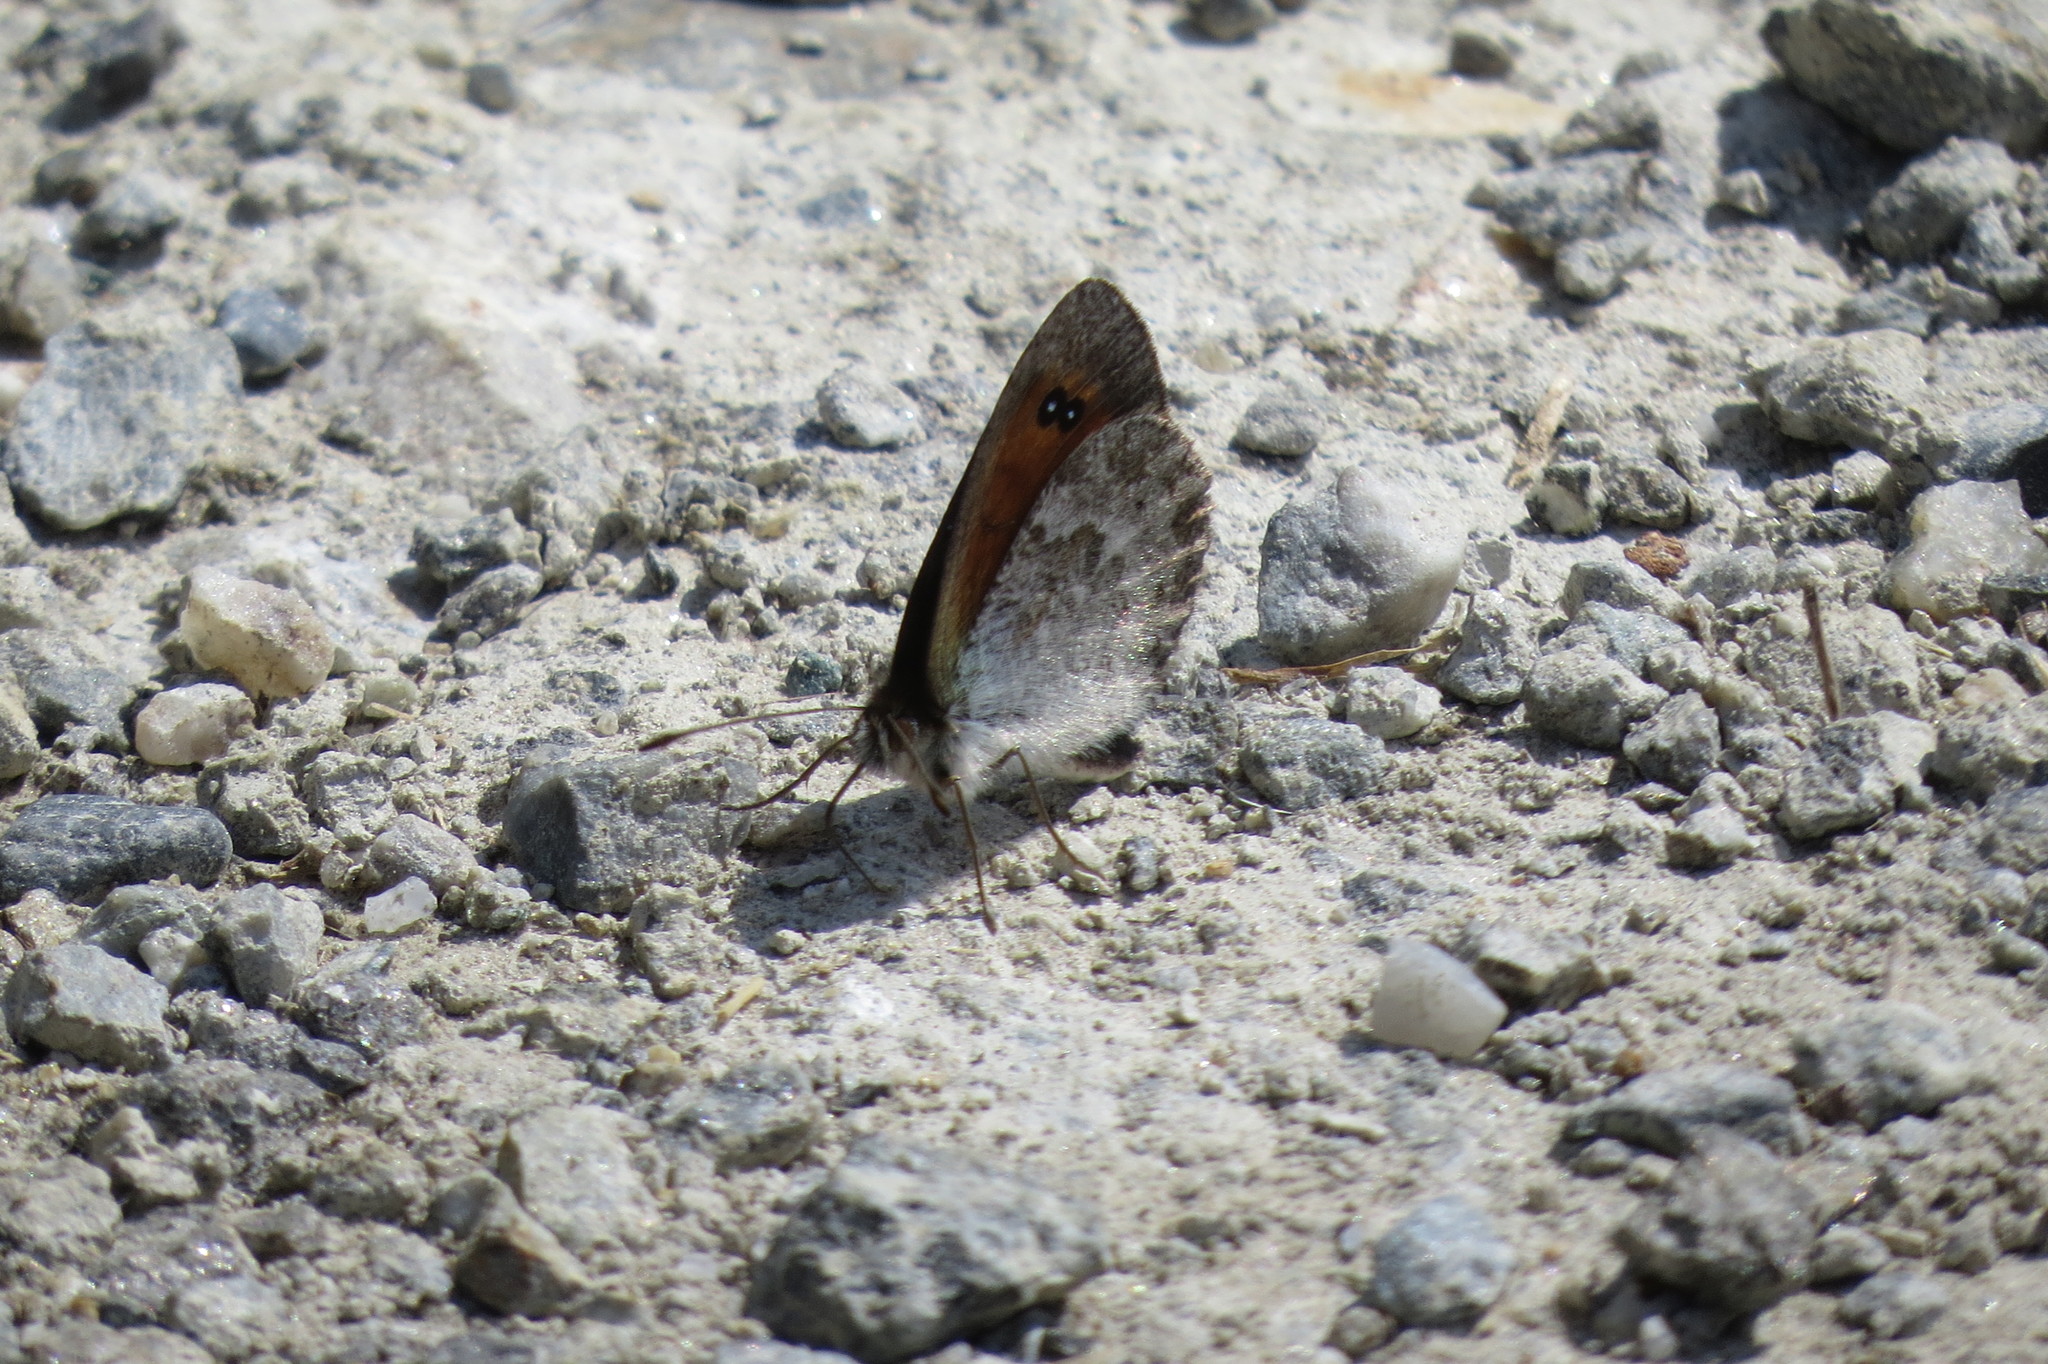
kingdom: Animalia
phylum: Arthropoda
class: Insecta
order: Lepidoptera
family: Nymphalidae
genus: Erebia
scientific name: Erebia cassioides
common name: Common brassy ringlet
